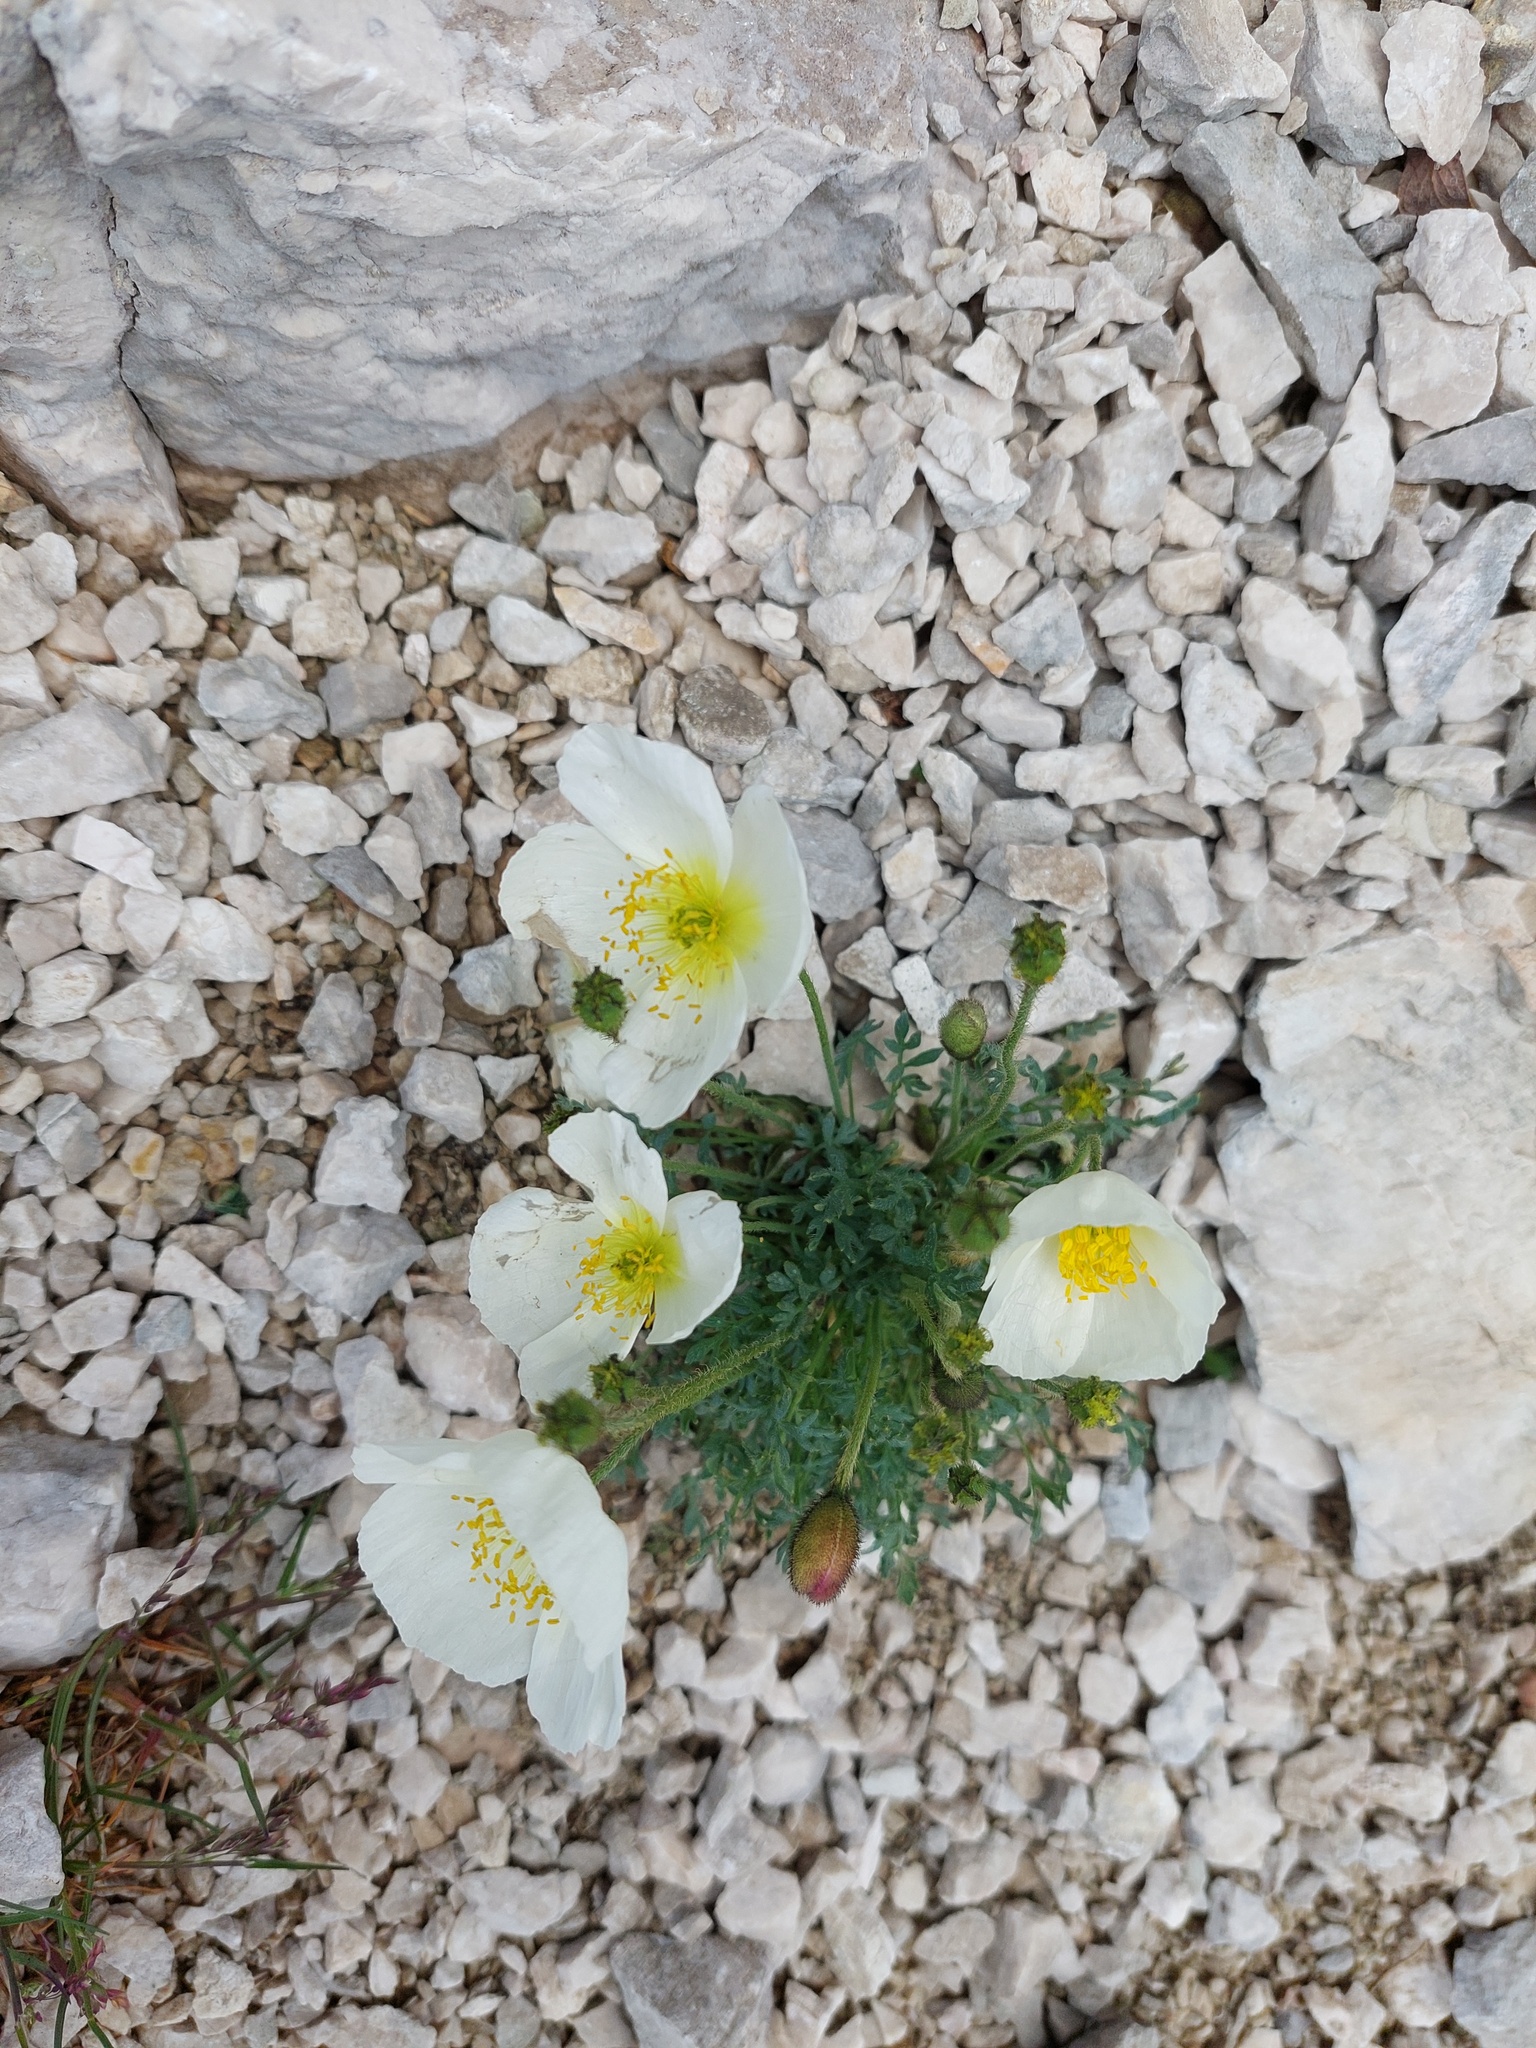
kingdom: Plantae
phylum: Tracheophyta
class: Magnoliopsida
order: Ranunculales
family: Papaveraceae
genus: Papaver
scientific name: Papaver alpinum
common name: Austrian poppy
